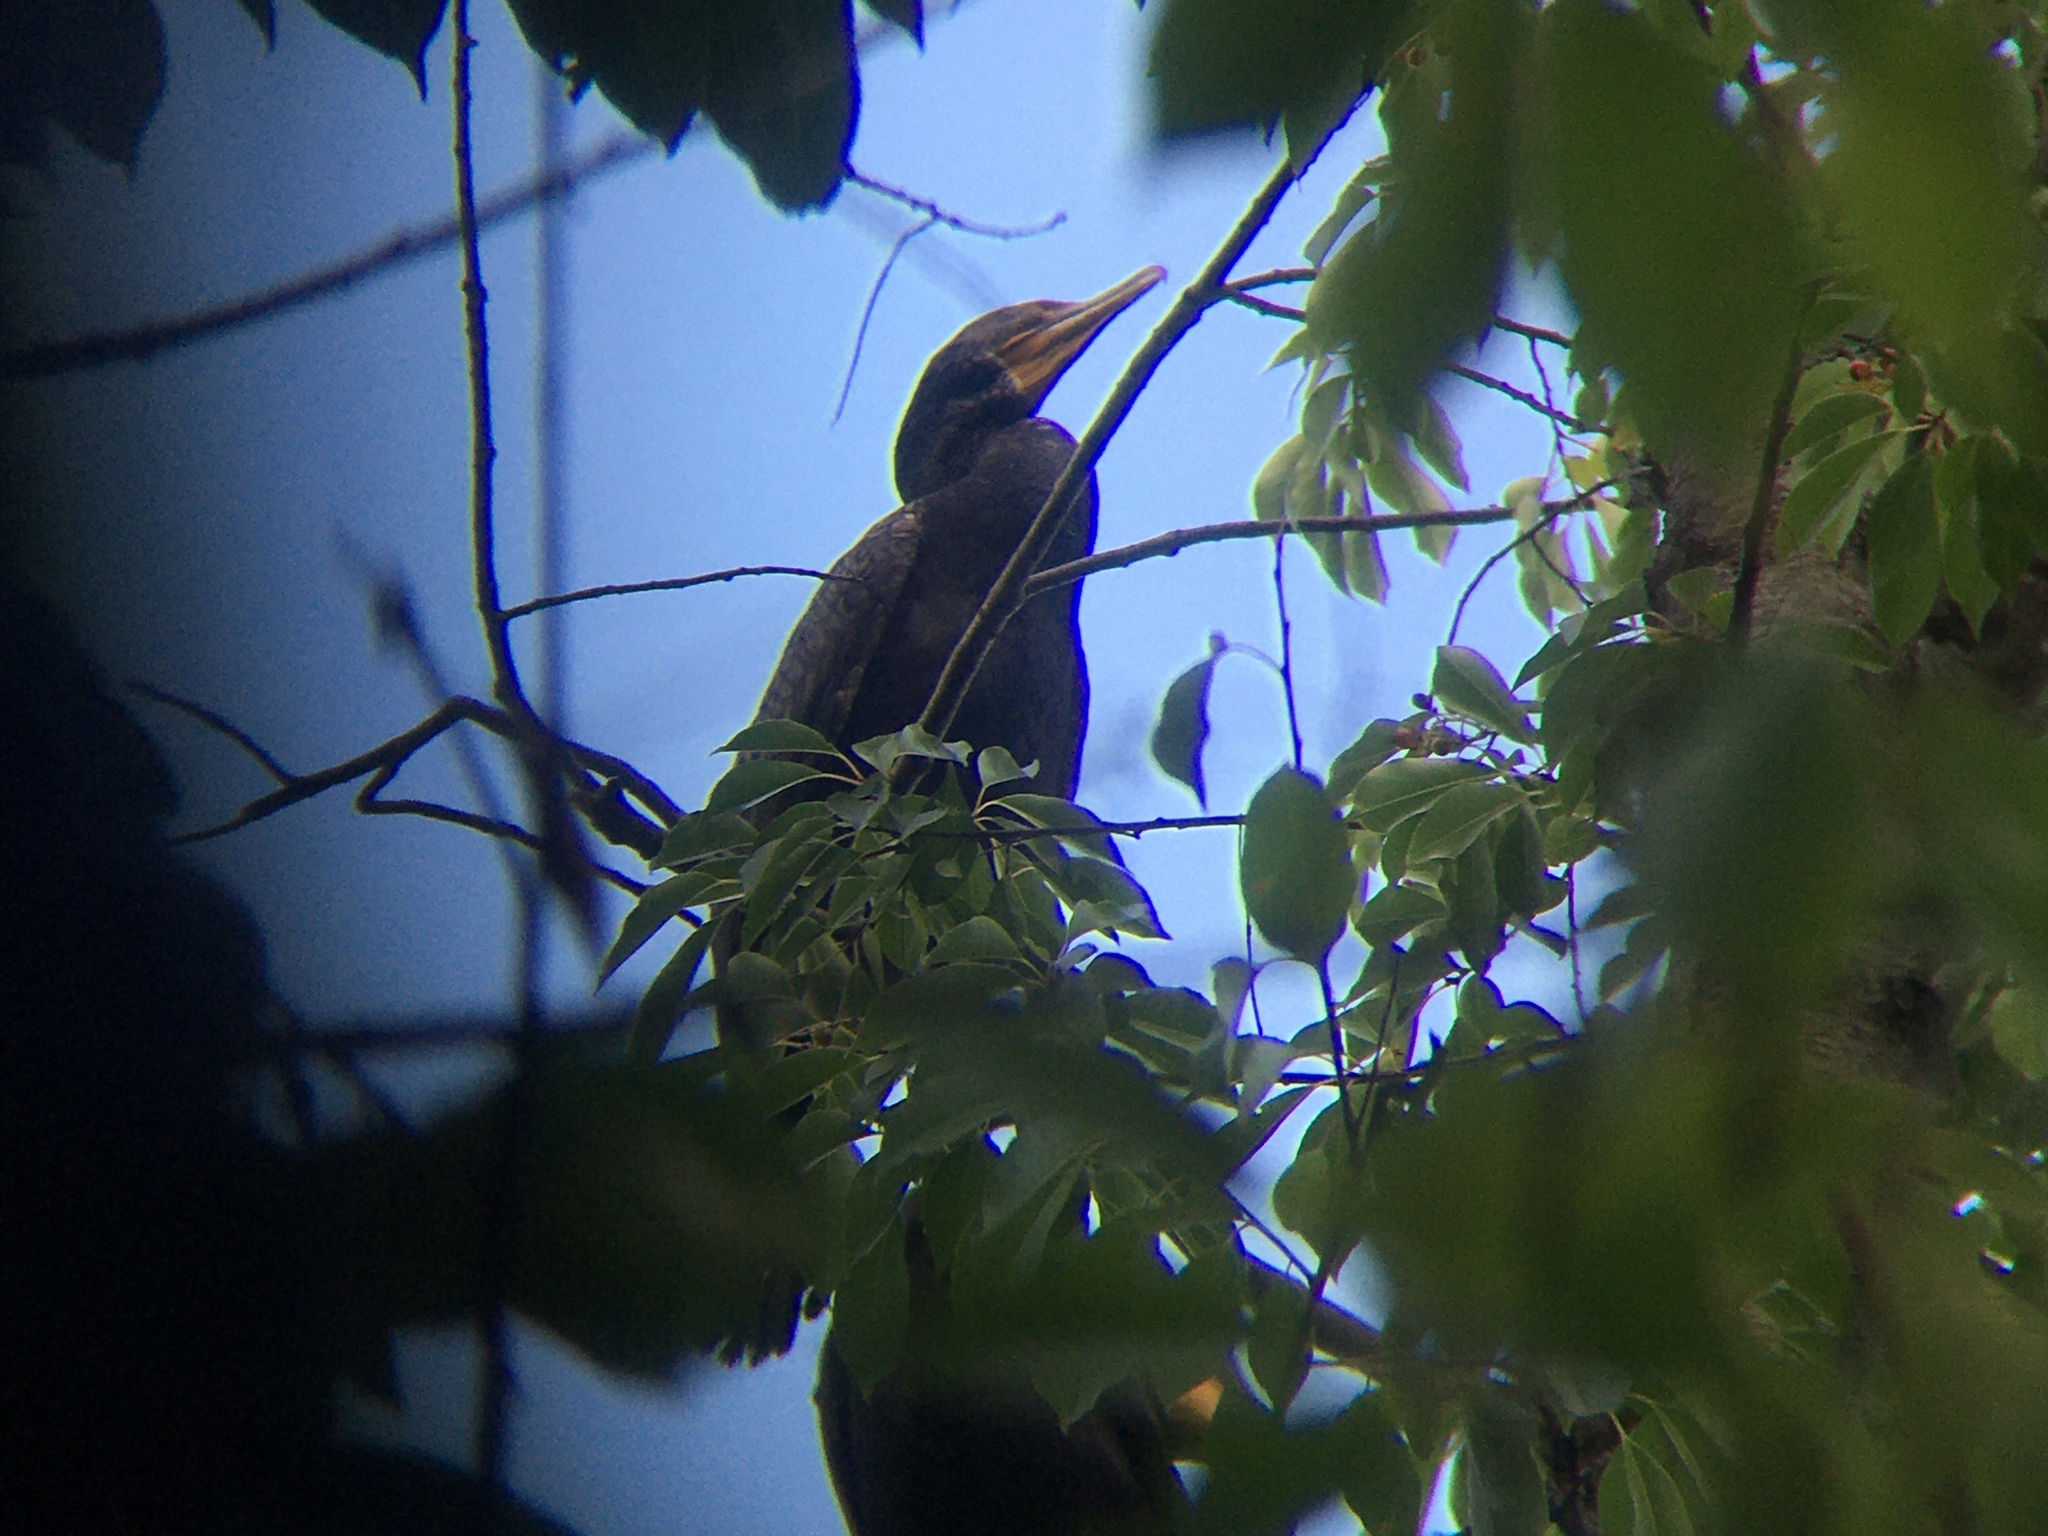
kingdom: Animalia
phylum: Chordata
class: Aves
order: Suliformes
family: Phalacrocoracidae
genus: Phalacrocorax
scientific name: Phalacrocorax auritus
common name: Double-crested cormorant
